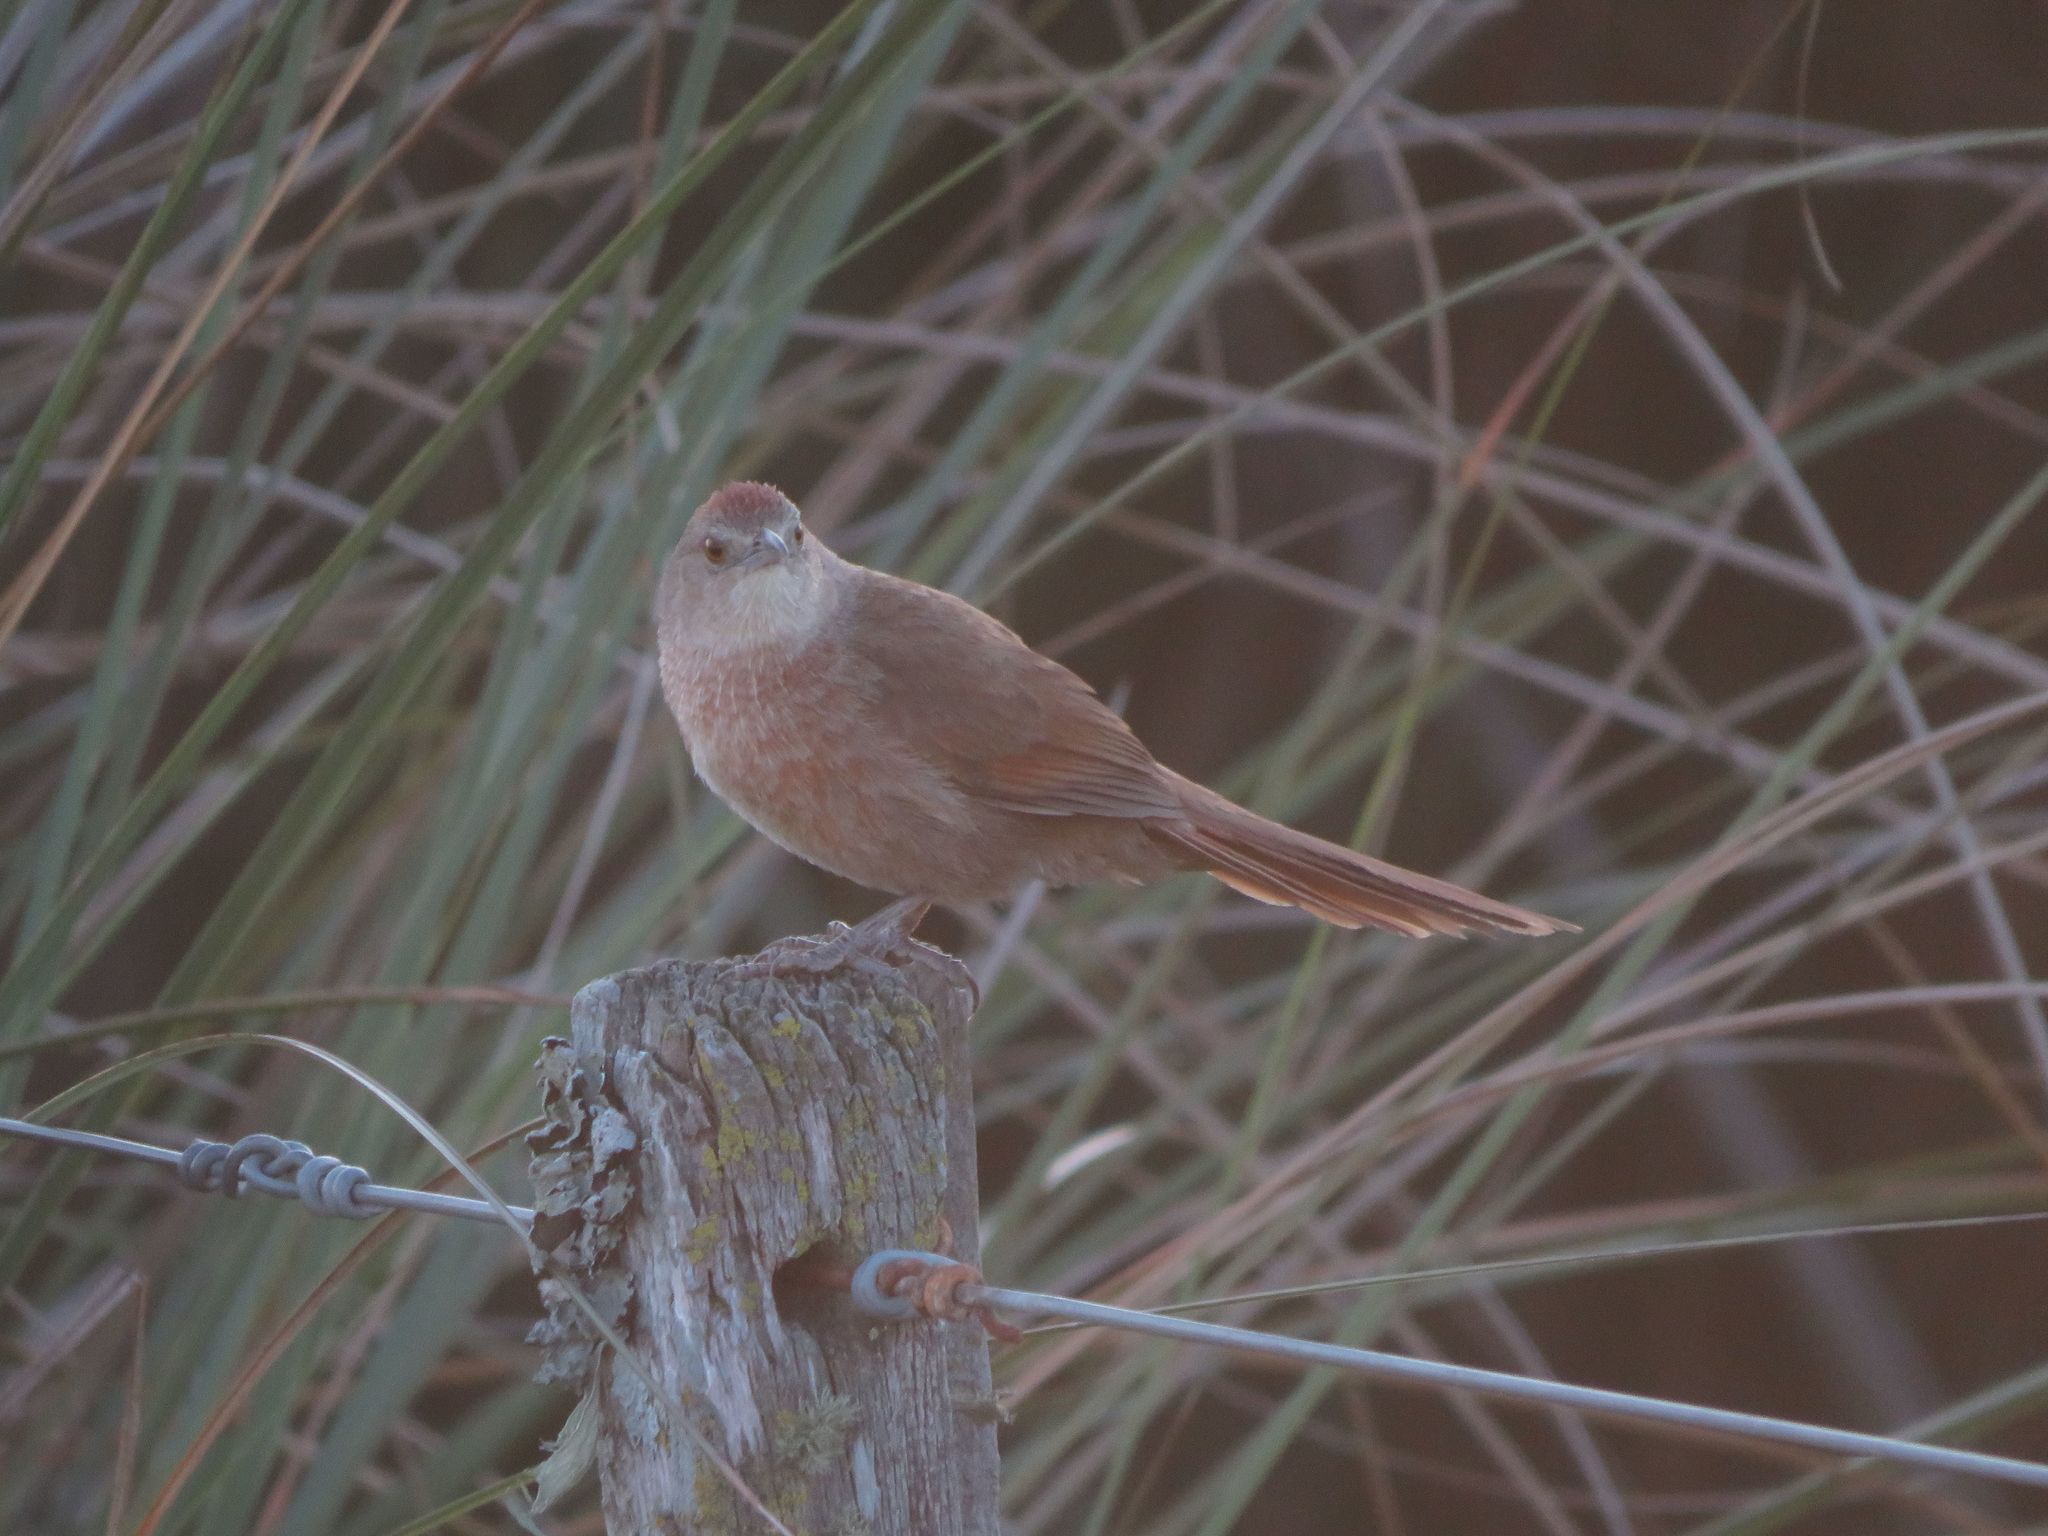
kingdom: Animalia
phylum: Chordata
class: Aves
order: Passeriformes
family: Furnariidae
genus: Phacellodomus
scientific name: Phacellodomus striaticollis
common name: Freckle-breasted thornbird
